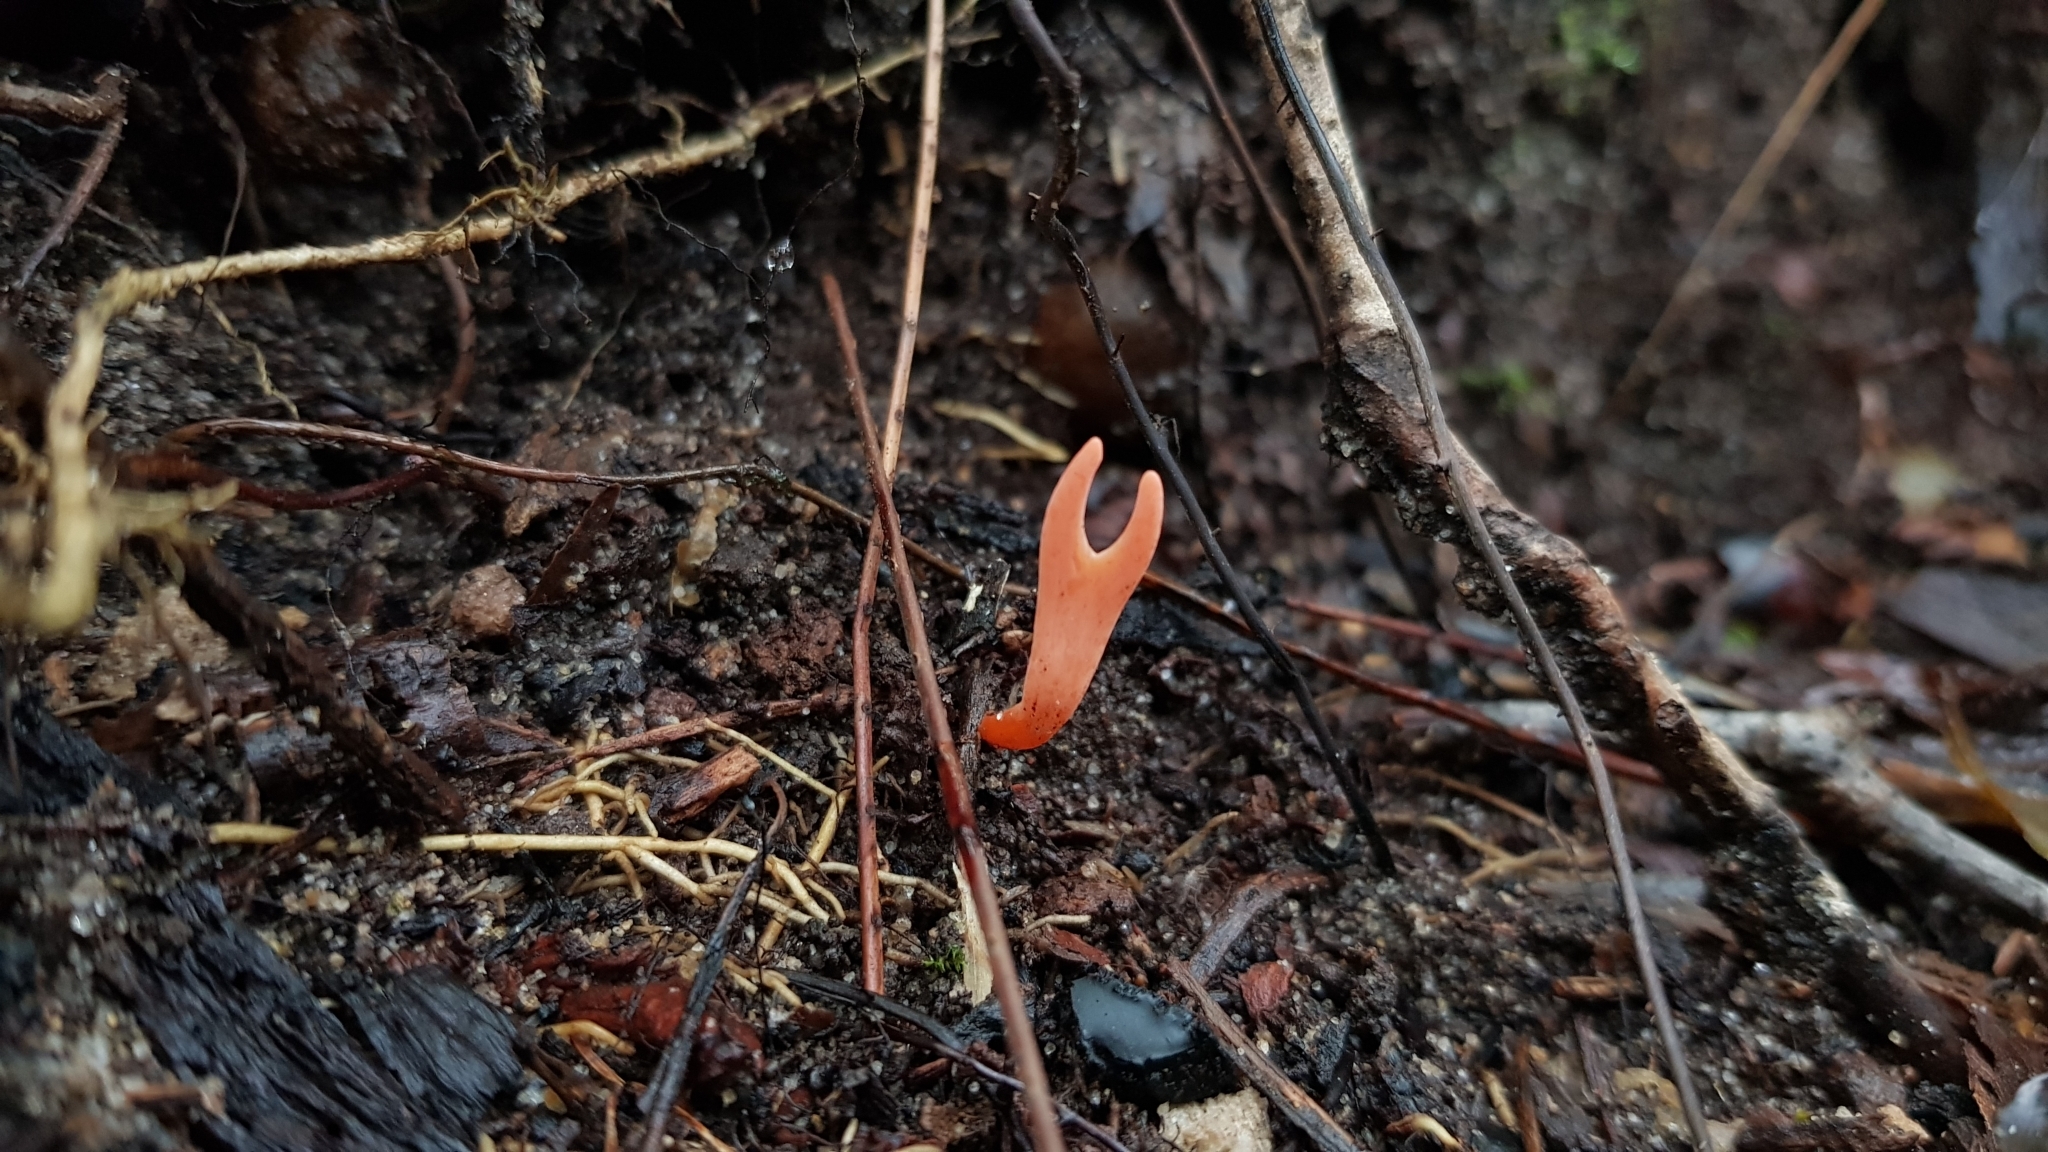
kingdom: Fungi
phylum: Basidiomycota
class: Agaricomycetes
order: Agaricales
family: Clavariaceae
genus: Clavulinopsis
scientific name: Clavulinopsis corallinorosacea
